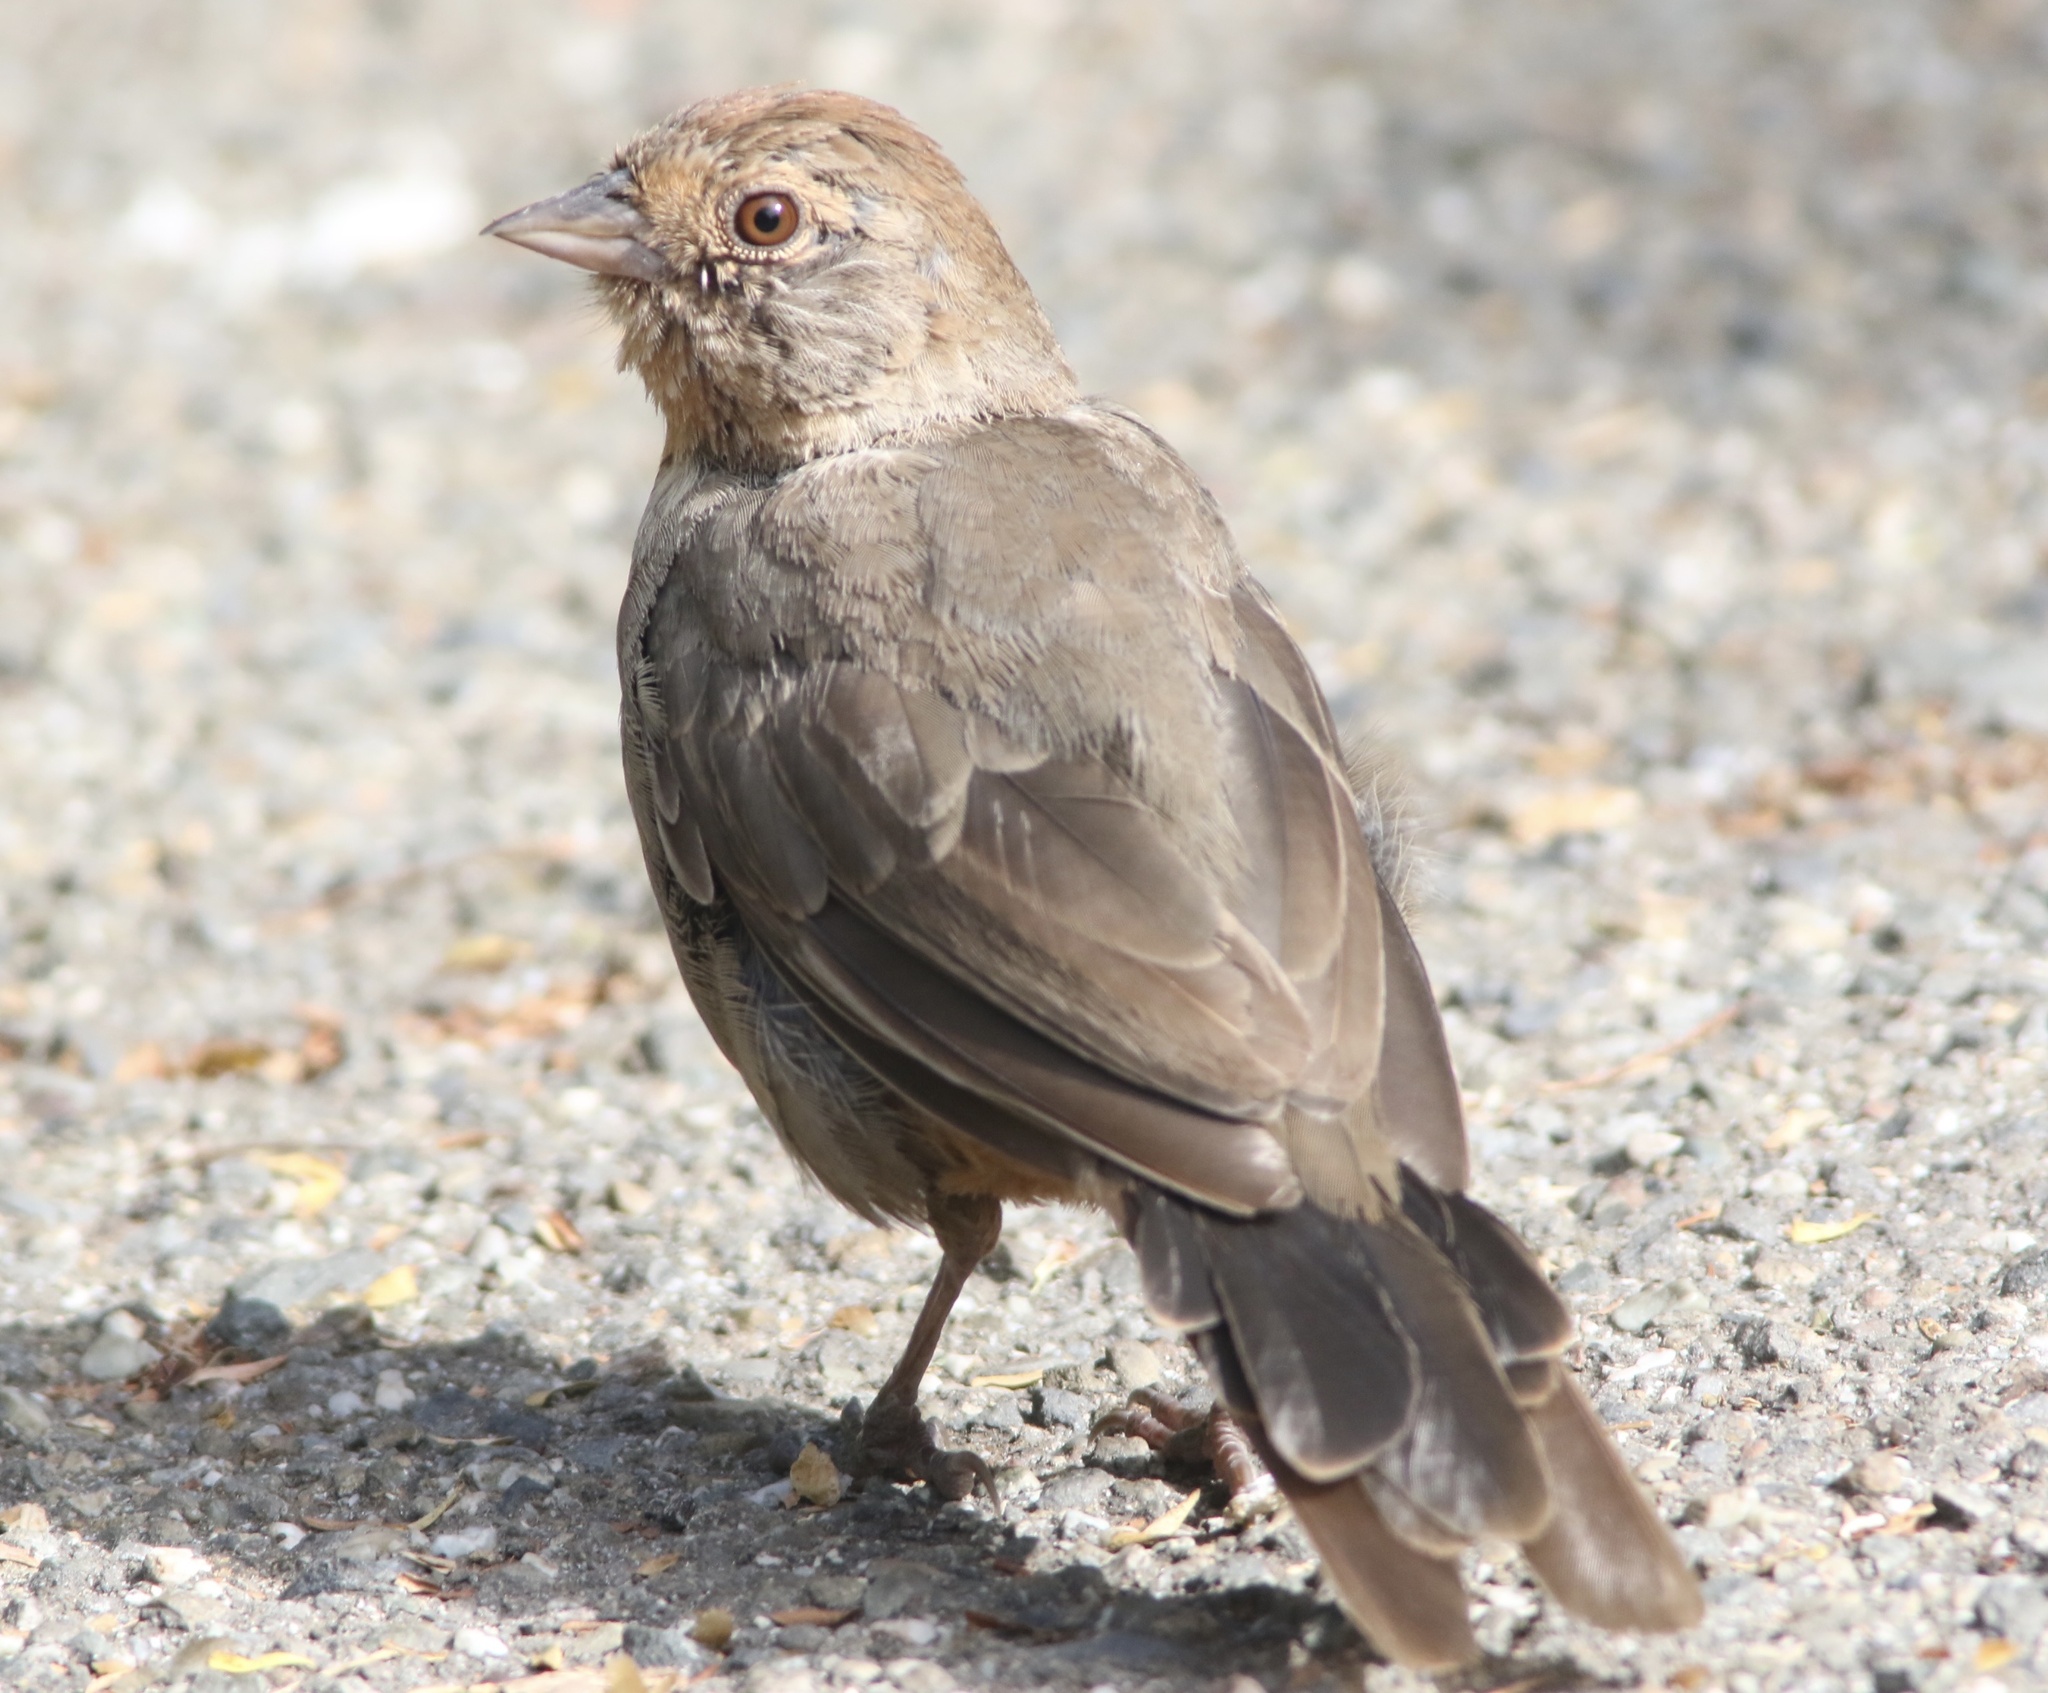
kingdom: Animalia
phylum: Chordata
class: Aves
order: Passeriformes
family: Passerellidae
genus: Melozone
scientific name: Melozone crissalis
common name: California towhee
